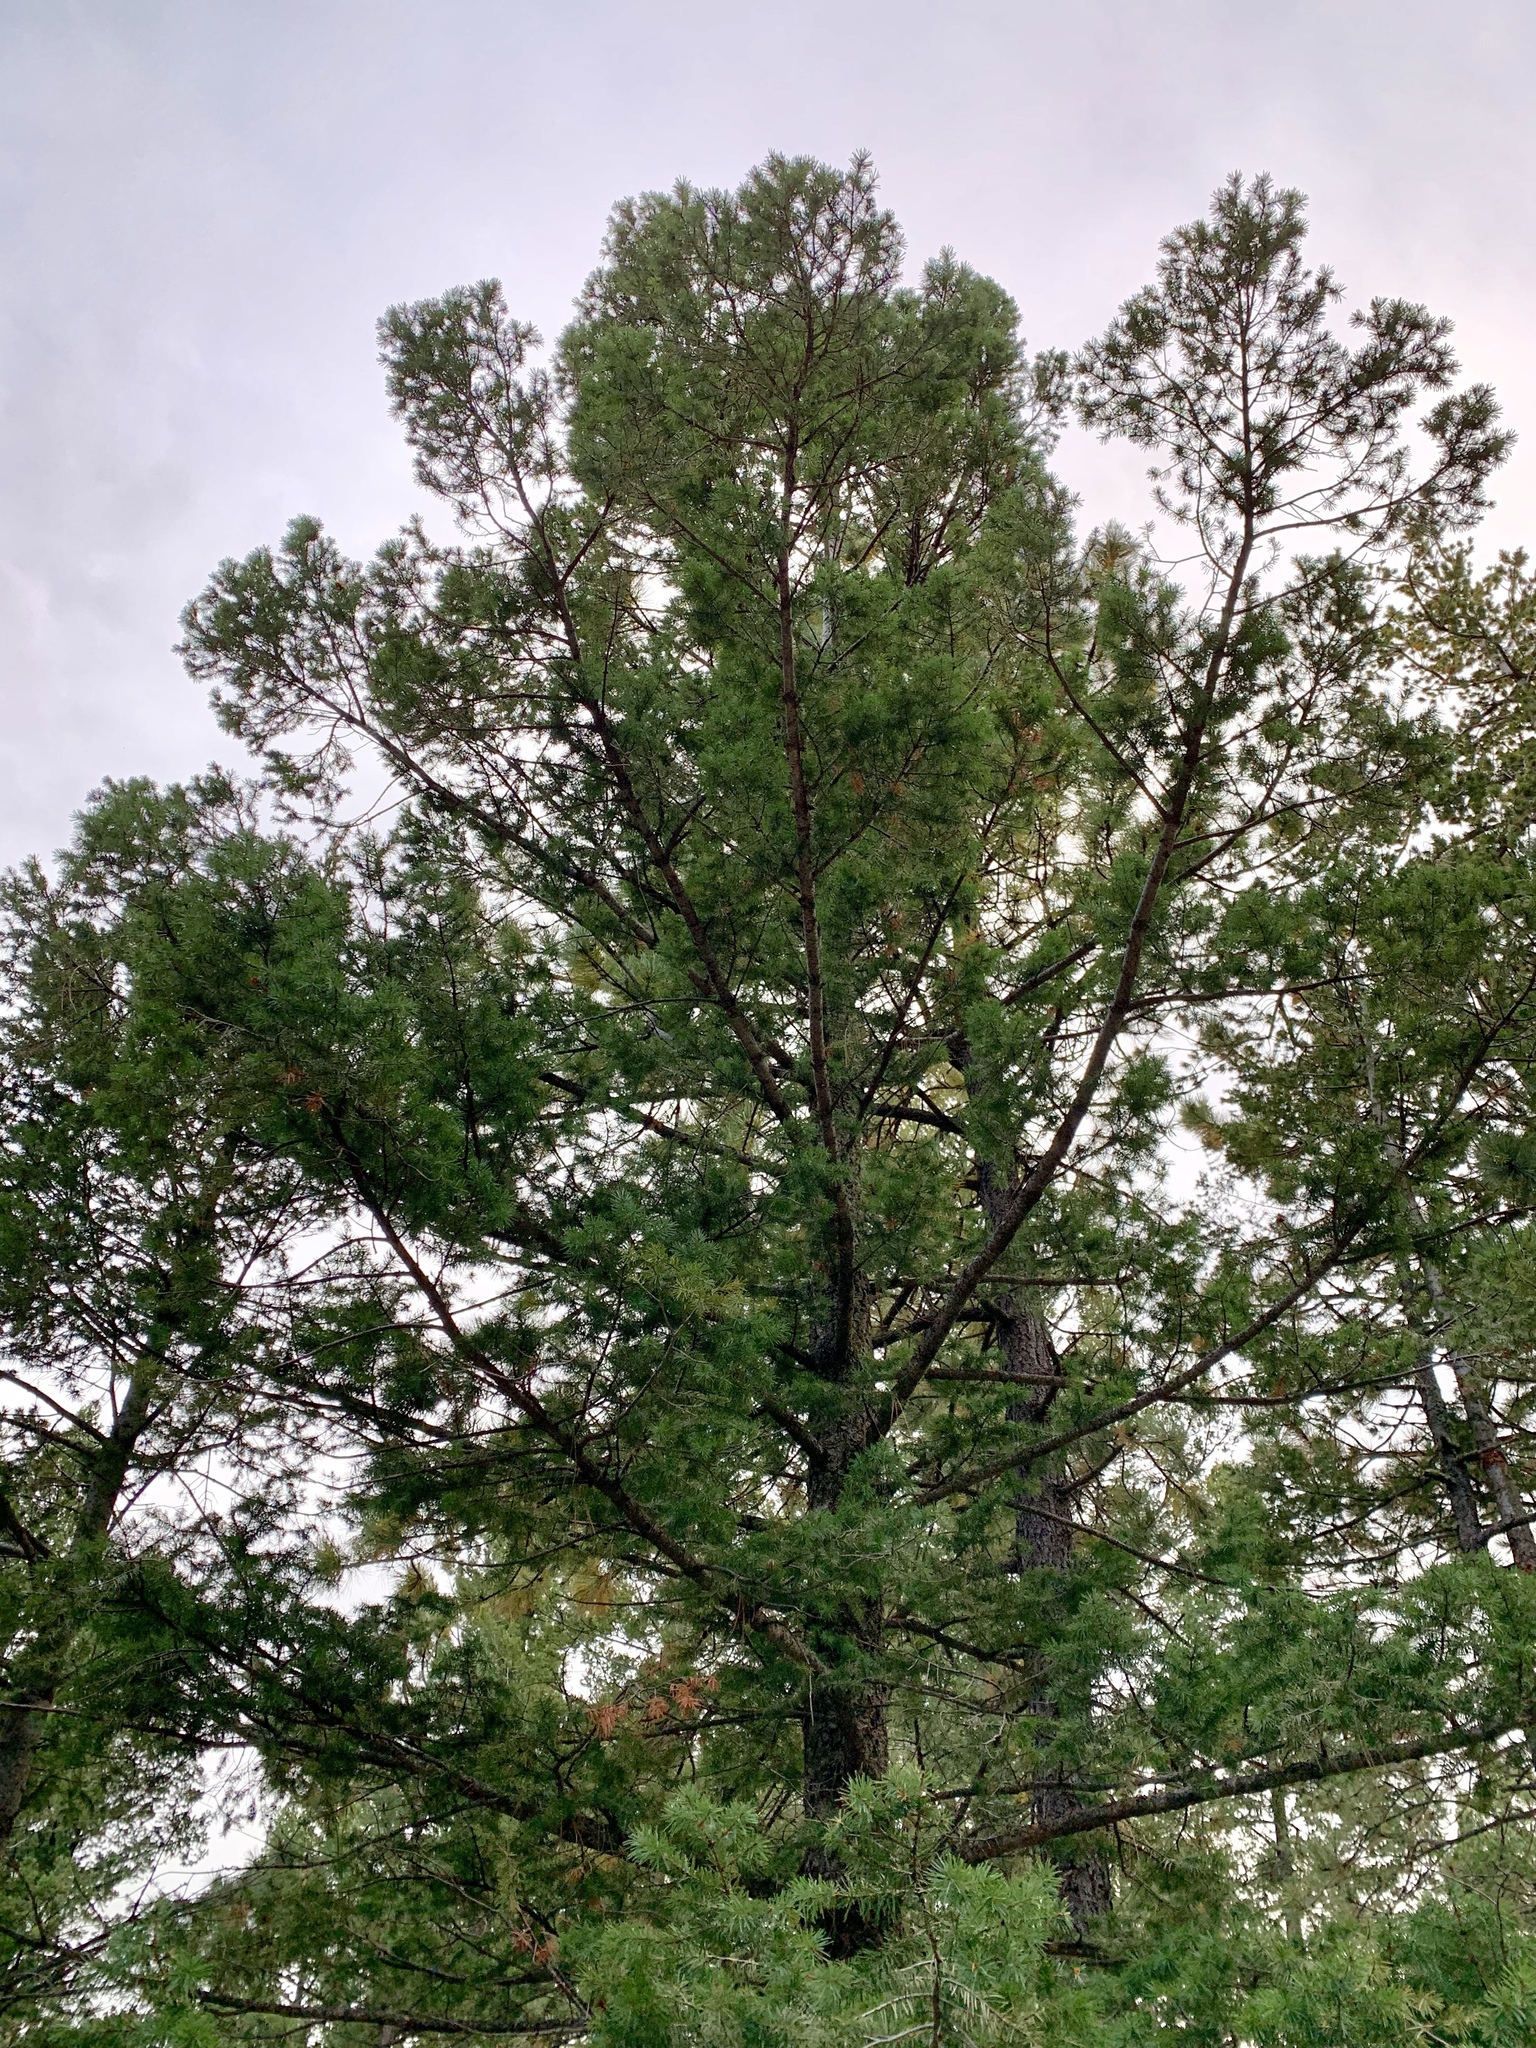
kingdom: Plantae
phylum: Tracheophyta
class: Pinopsida
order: Pinales
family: Pinaceae
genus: Pseudotsuga
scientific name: Pseudotsuga menziesii
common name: Douglas fir
